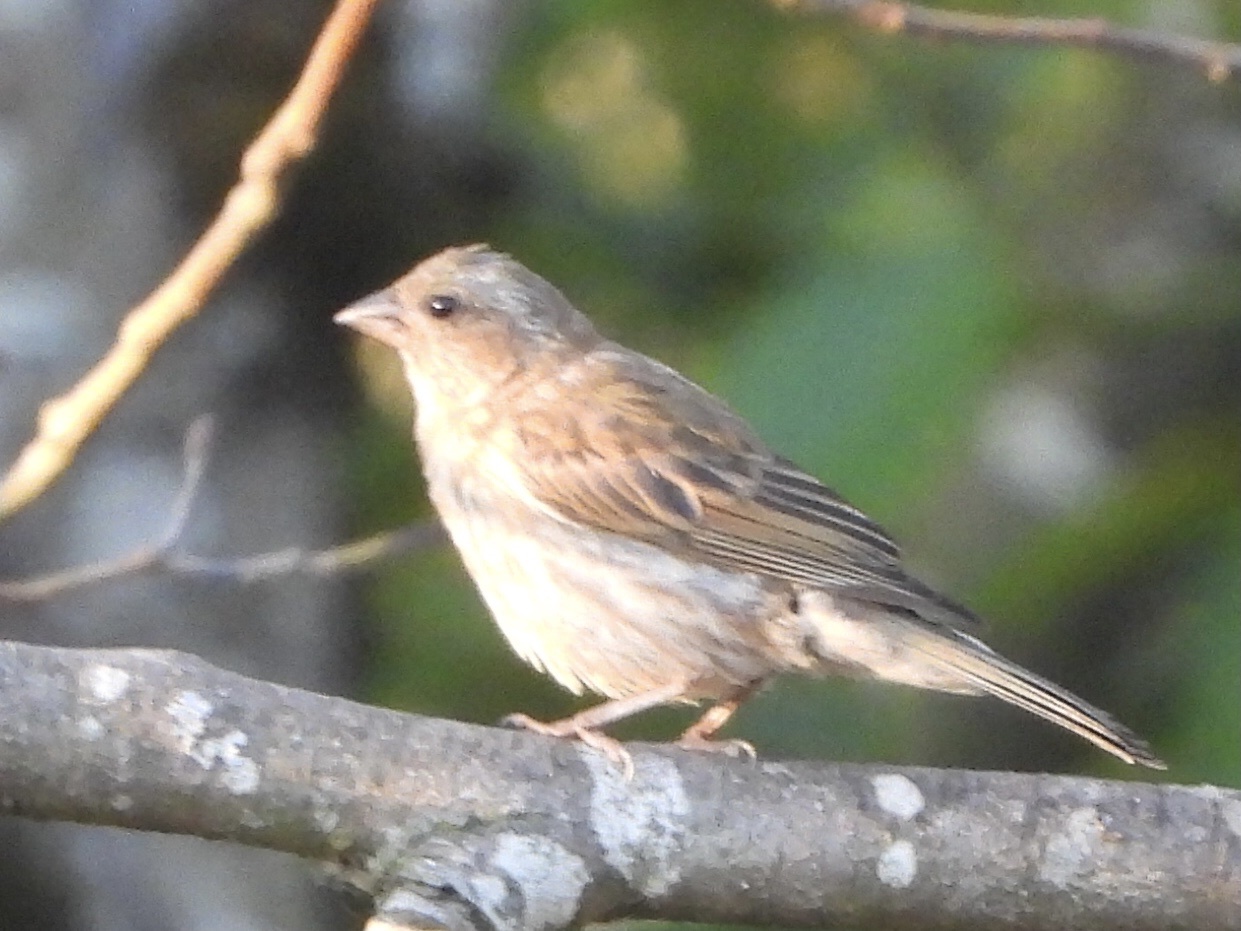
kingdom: Animalia
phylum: Chordata
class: Aves
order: Passeriformes
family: Fringillidae
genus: Haemorhous
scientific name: Haemorhous purpureus
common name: Purple finch
